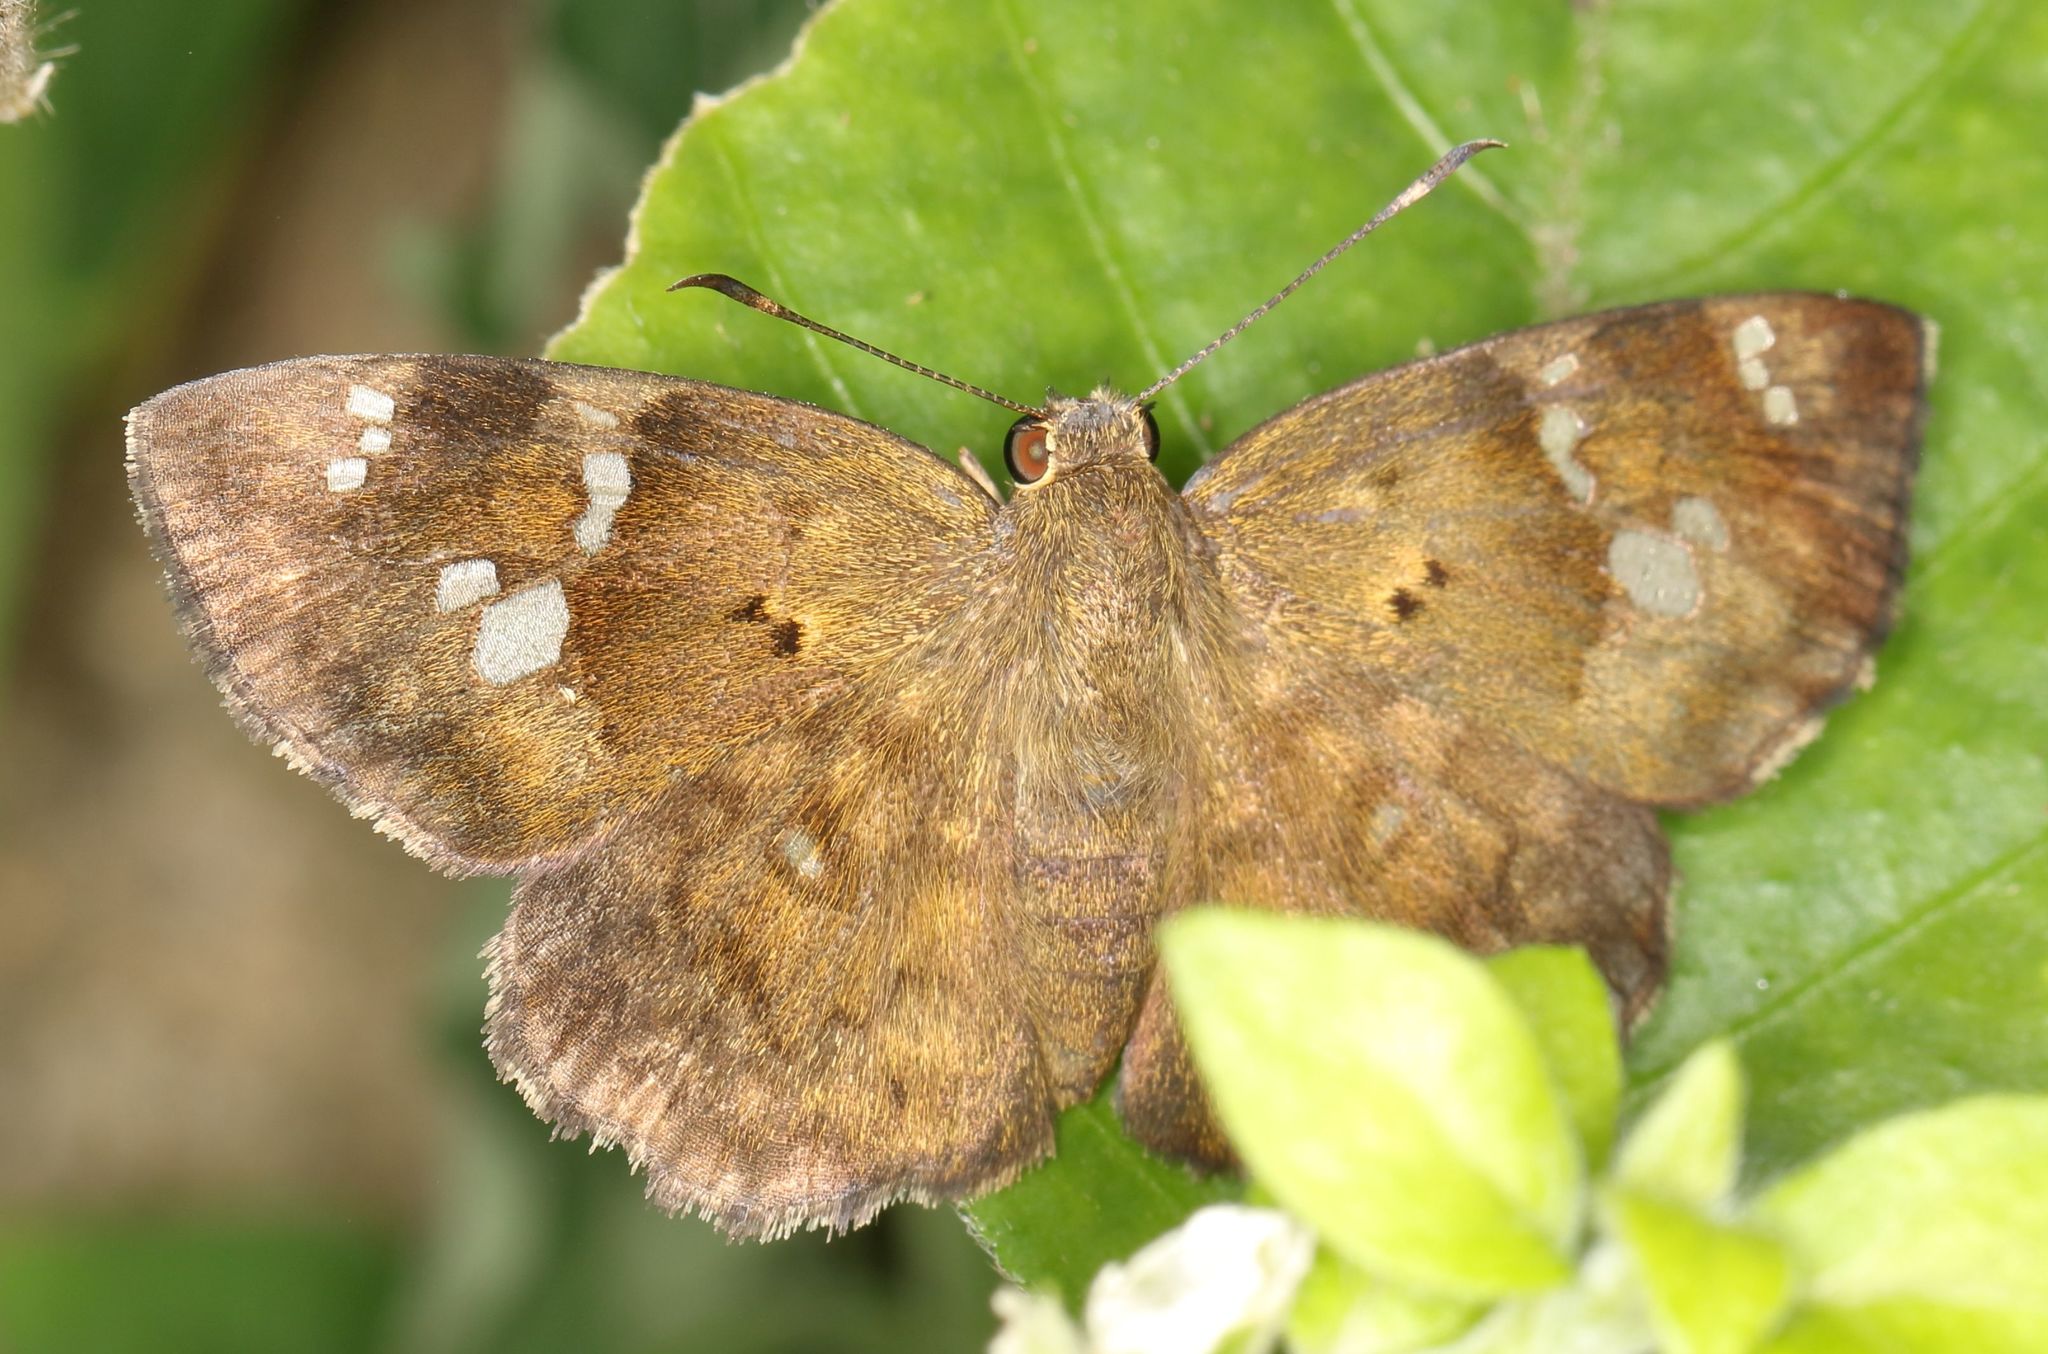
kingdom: Animalia
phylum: Arthropoda
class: Insecta
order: Lepidoptera
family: Hesperiidae
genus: Sarangesa
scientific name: Sarangesa motozi
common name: Forest elfin
